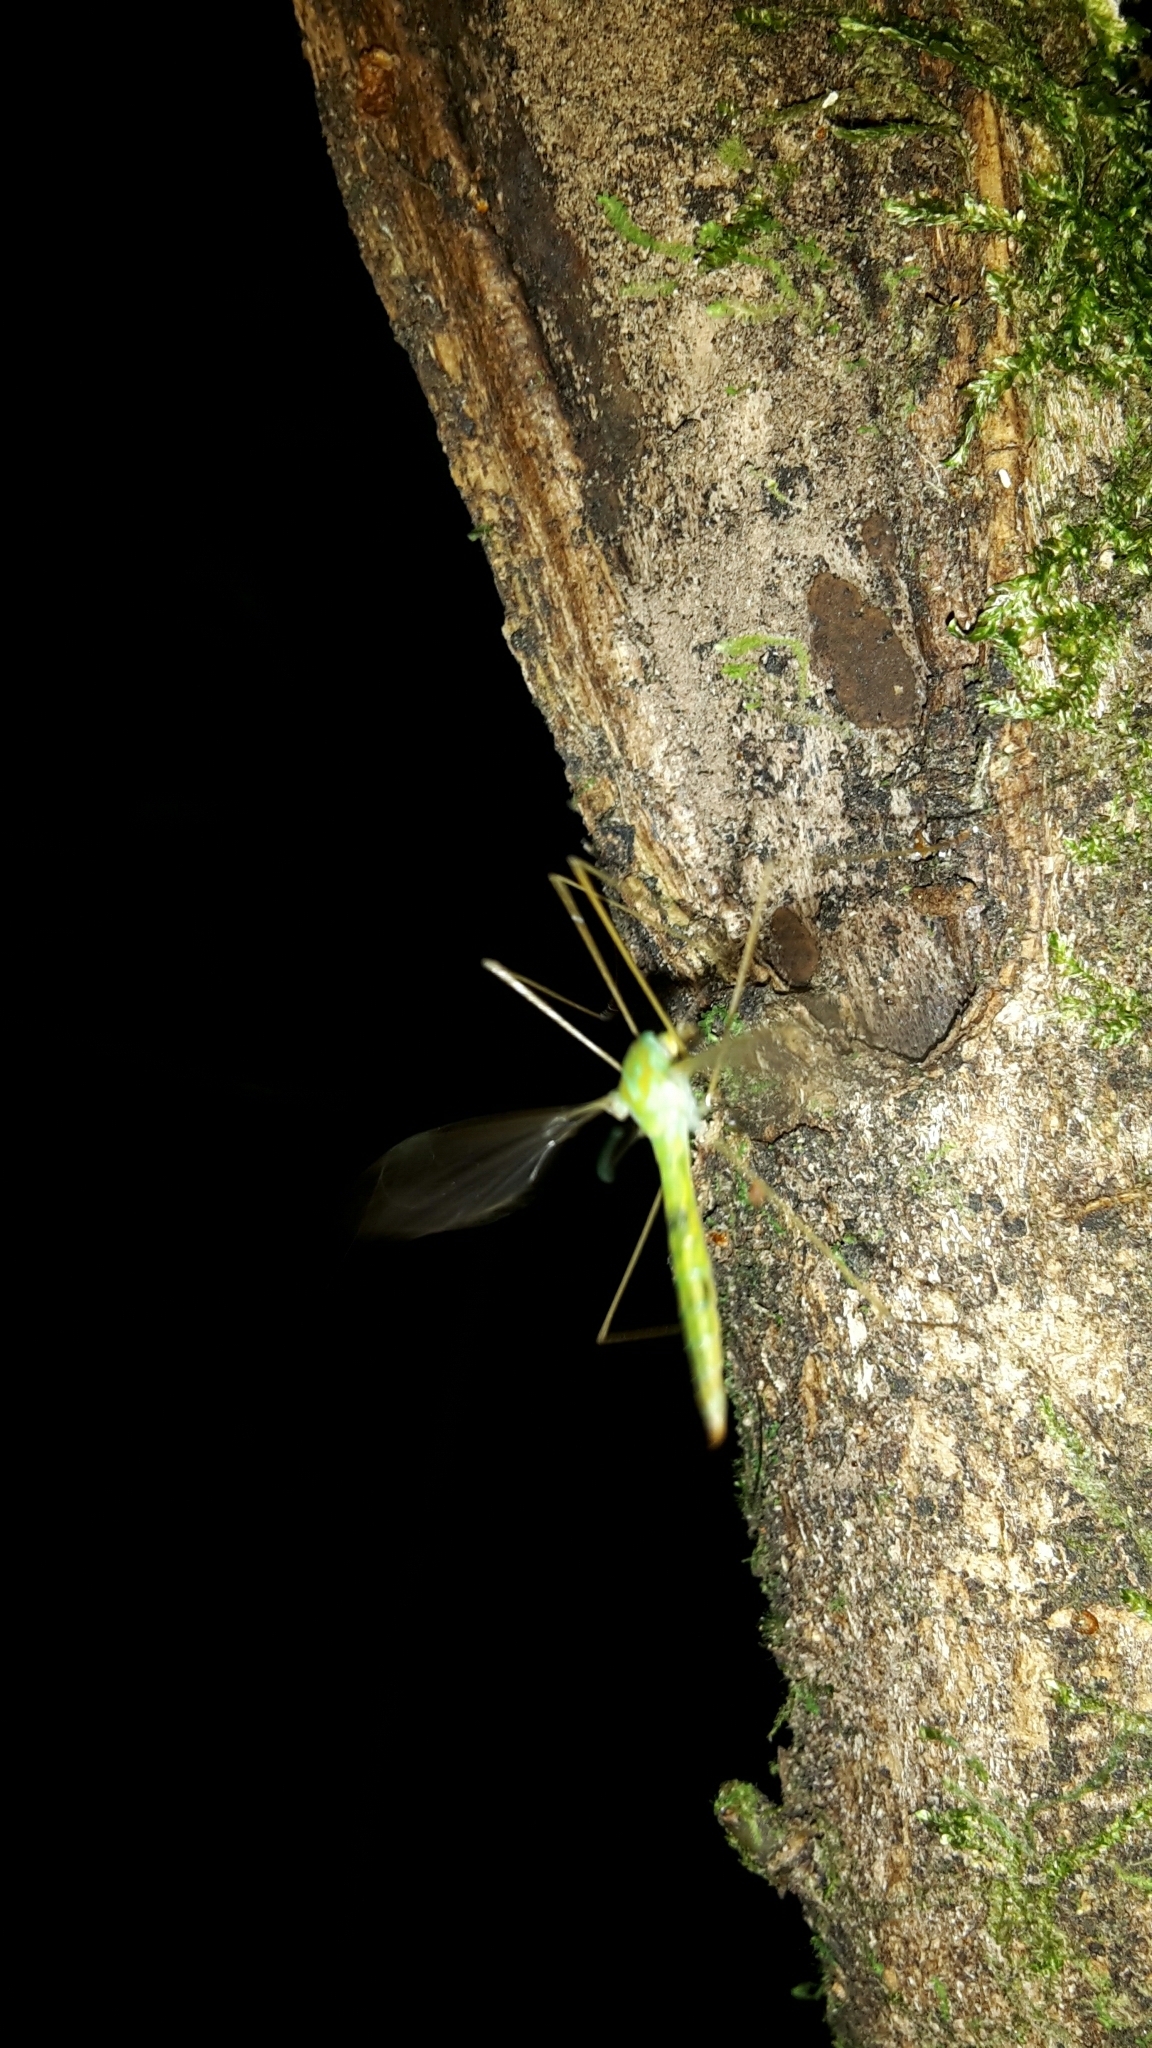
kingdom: Animalia
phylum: Arthropoda
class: Insecta
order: Diptera
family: Tipulidae
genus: Leptotarsus
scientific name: Leptotarsus virescens
